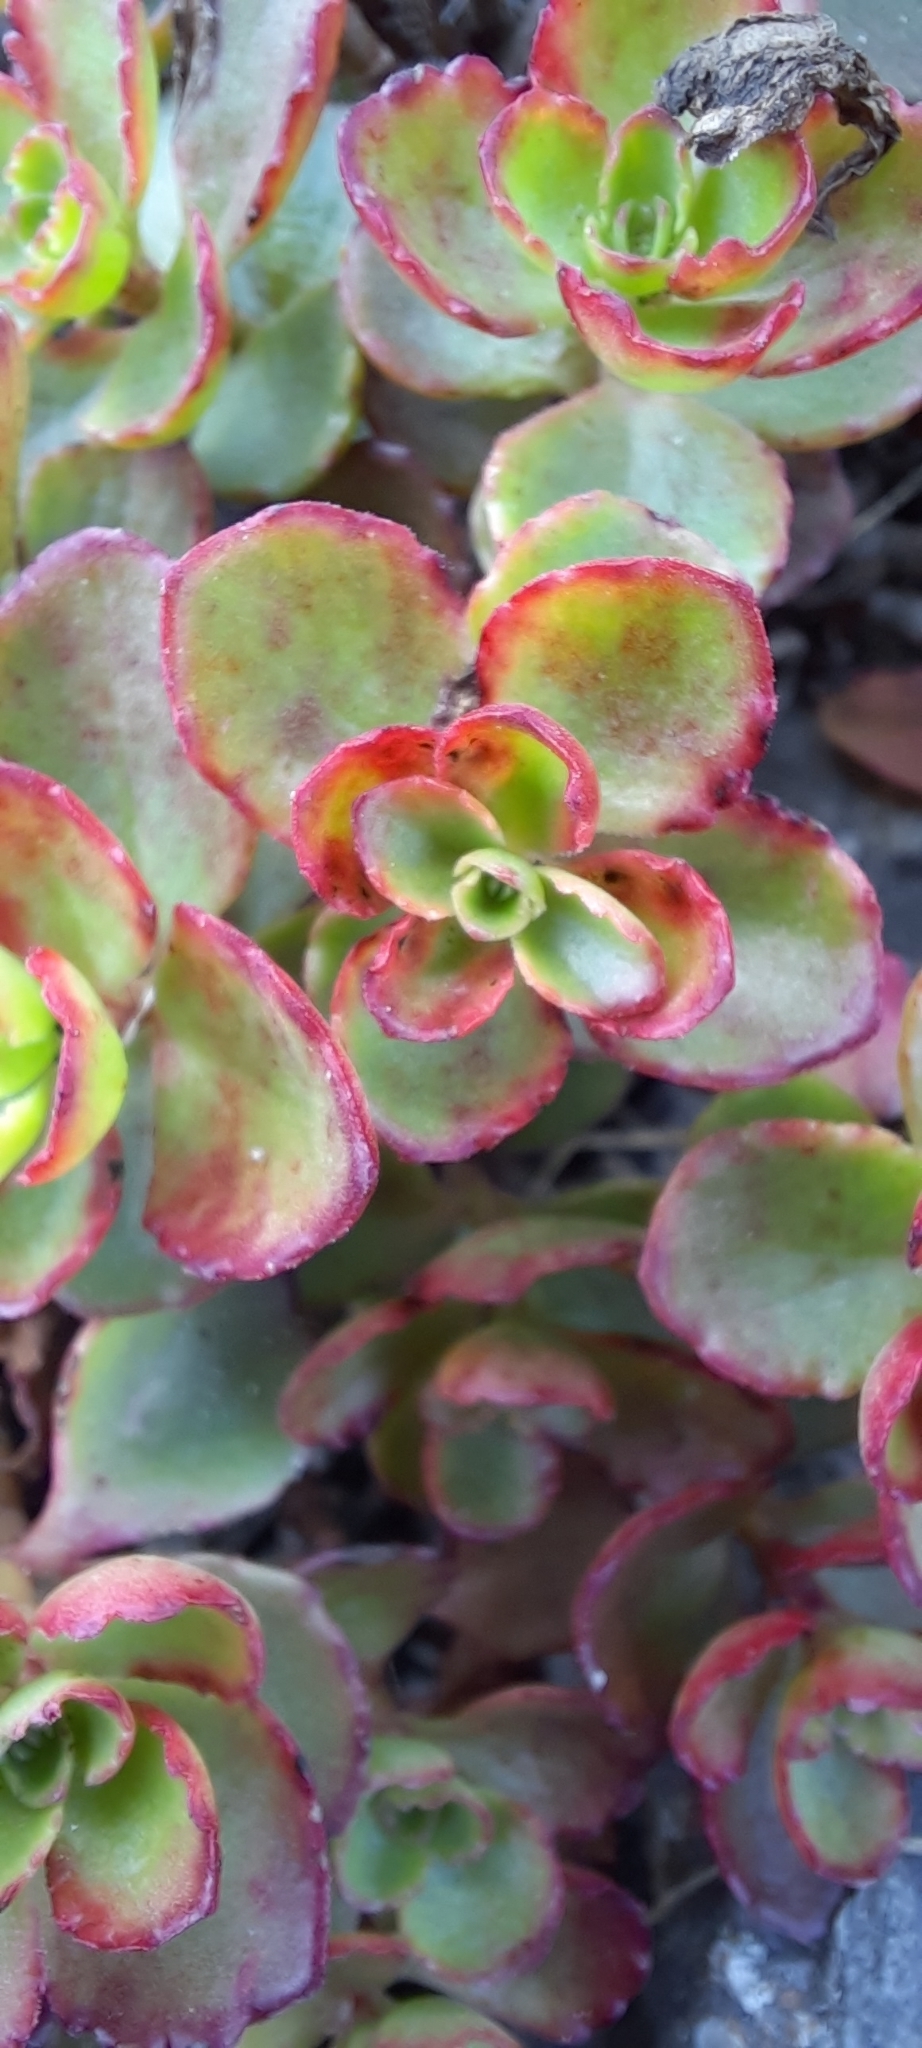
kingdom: Plantae
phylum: Tracheophyta
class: Magnoliopsida
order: Saxifragales
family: Crassulaceae
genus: Phedimus
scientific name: Phedimus spurius
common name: Caucasian stonecrop
